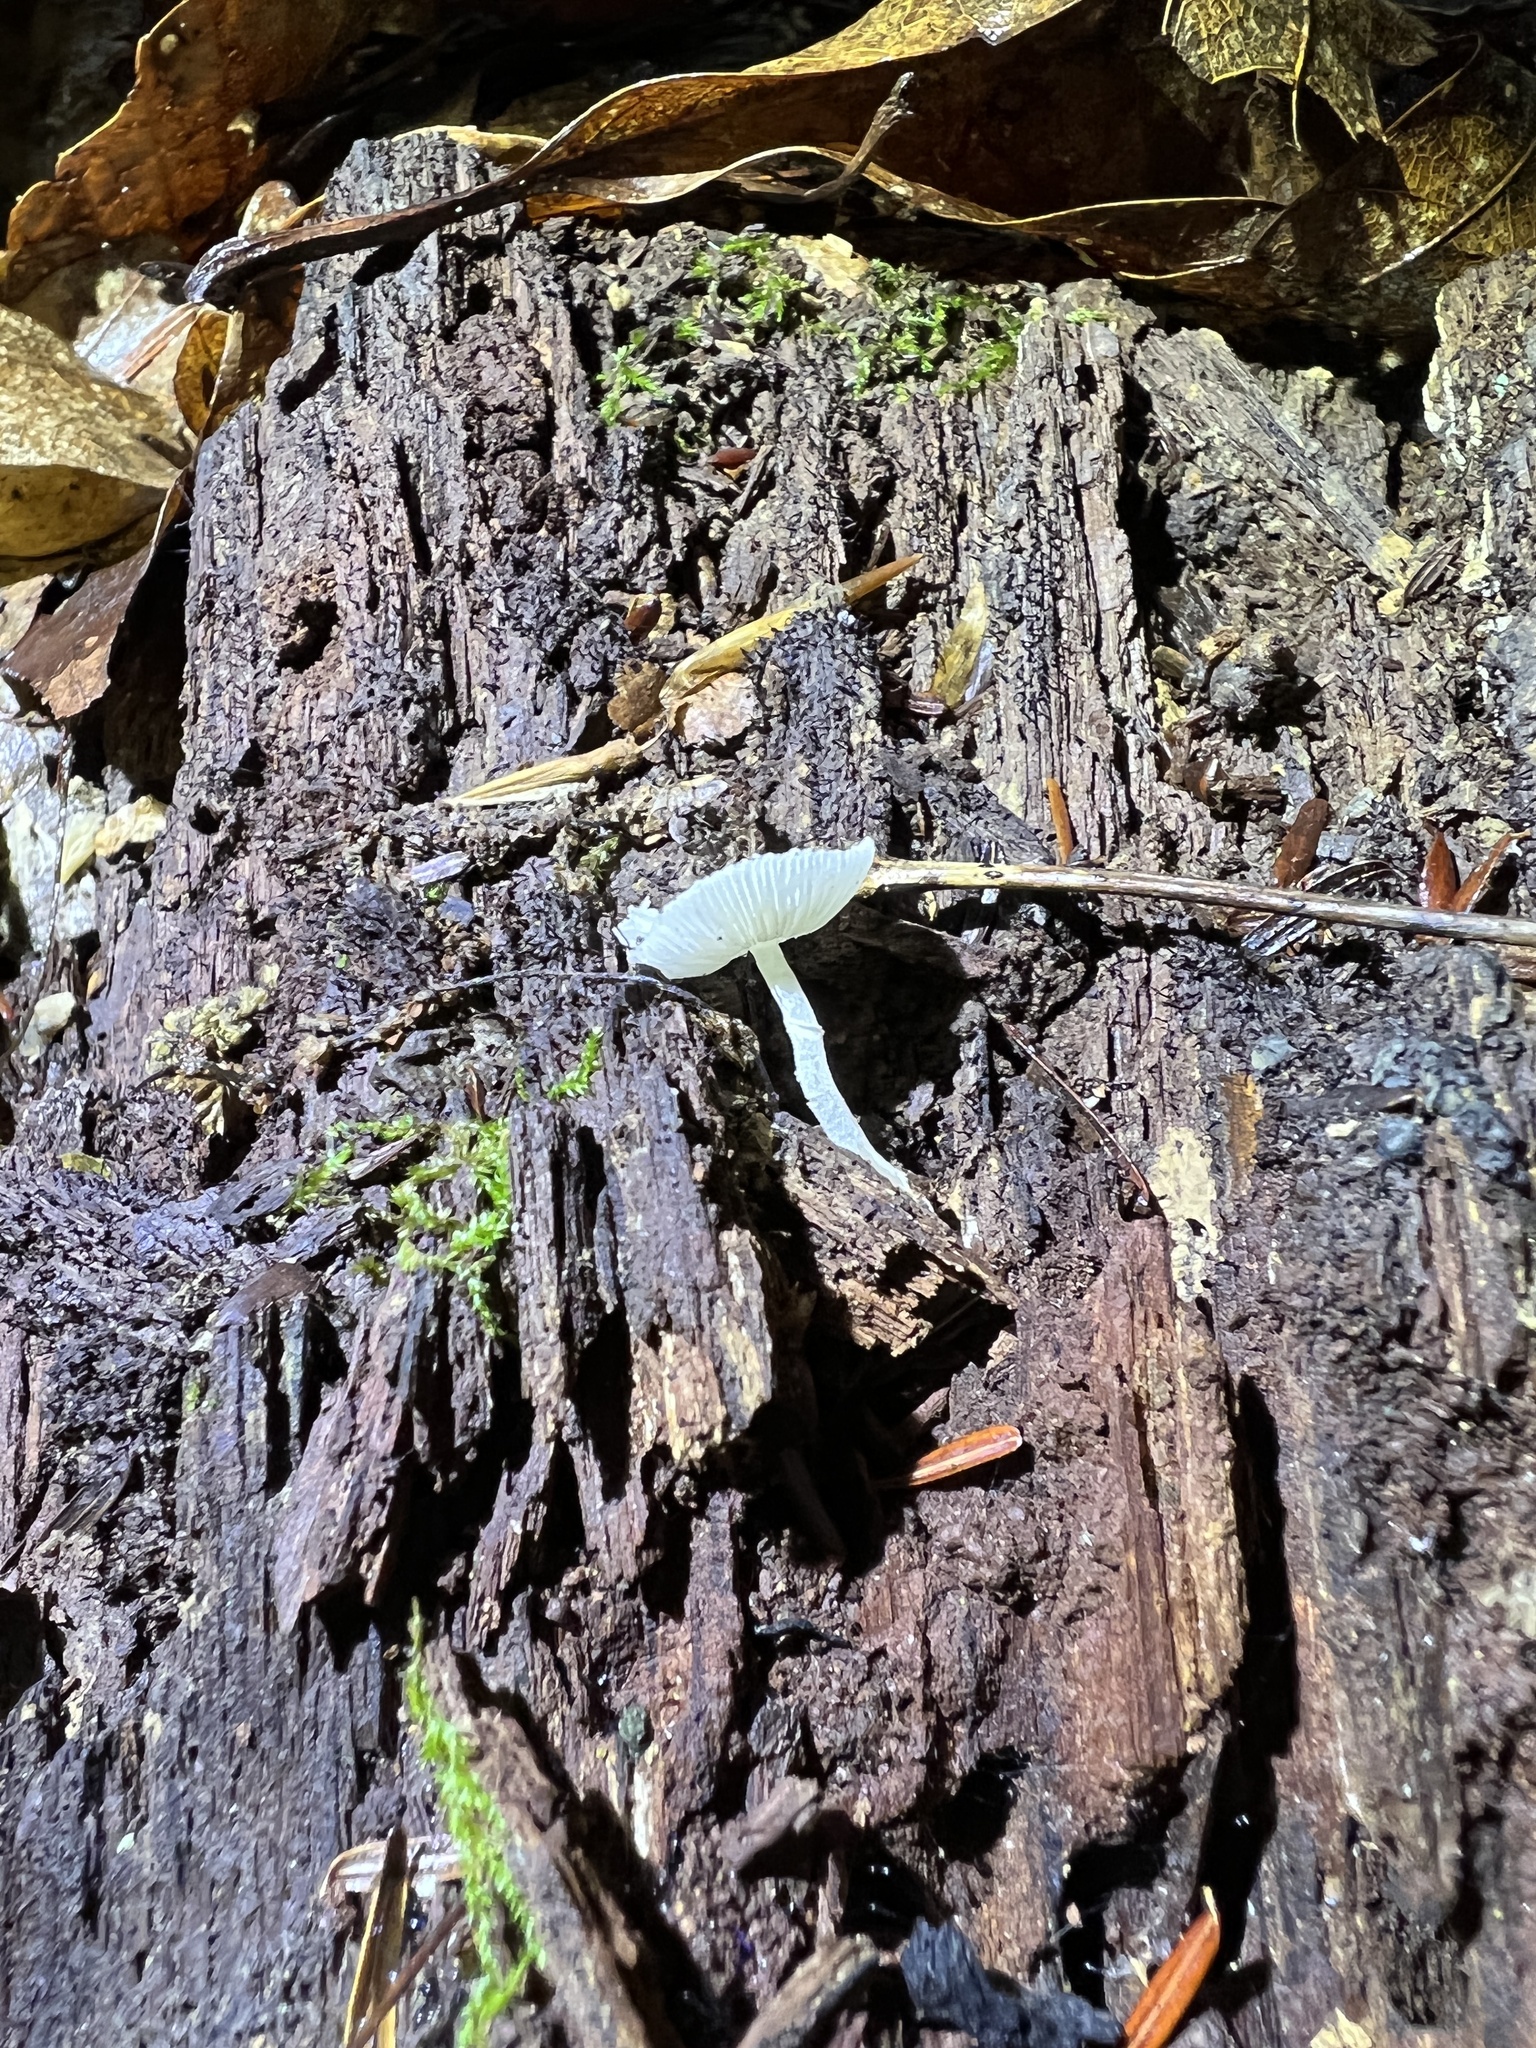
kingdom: Fungi
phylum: Basidiomycota
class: Agaricomycetes
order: Agaricales
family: Agaricaceae
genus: Lepiota
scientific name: Lepiota phaeosticta
